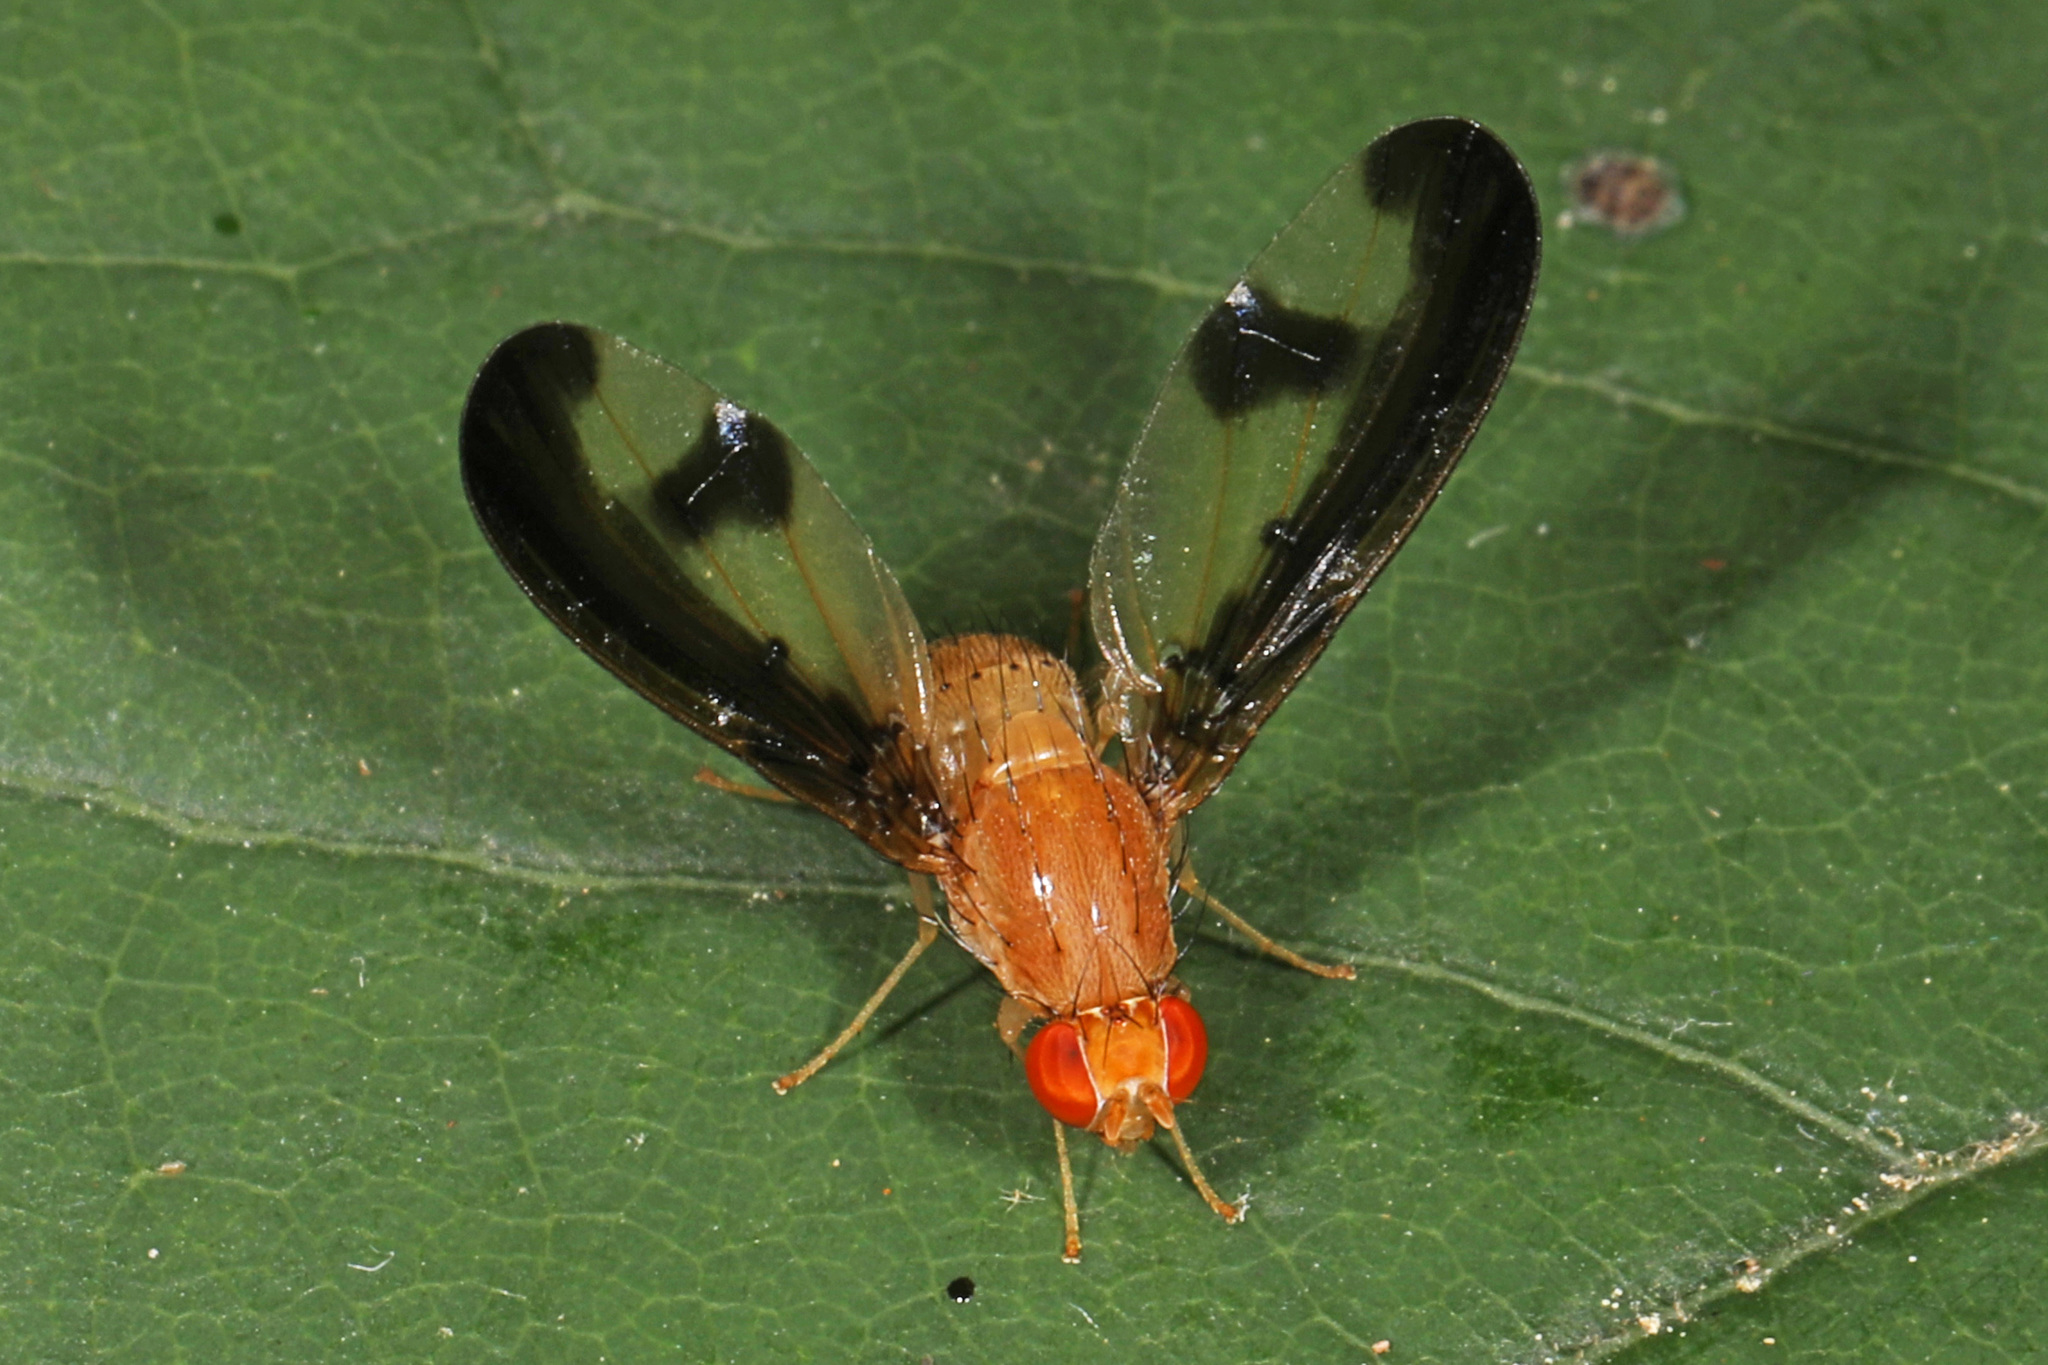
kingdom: Animalia
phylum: Arthropoda
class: Insecta
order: Diptera
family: Pallopteridae
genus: Toxonevra
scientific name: Toxonevra superba
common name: Antlered flutter fly
